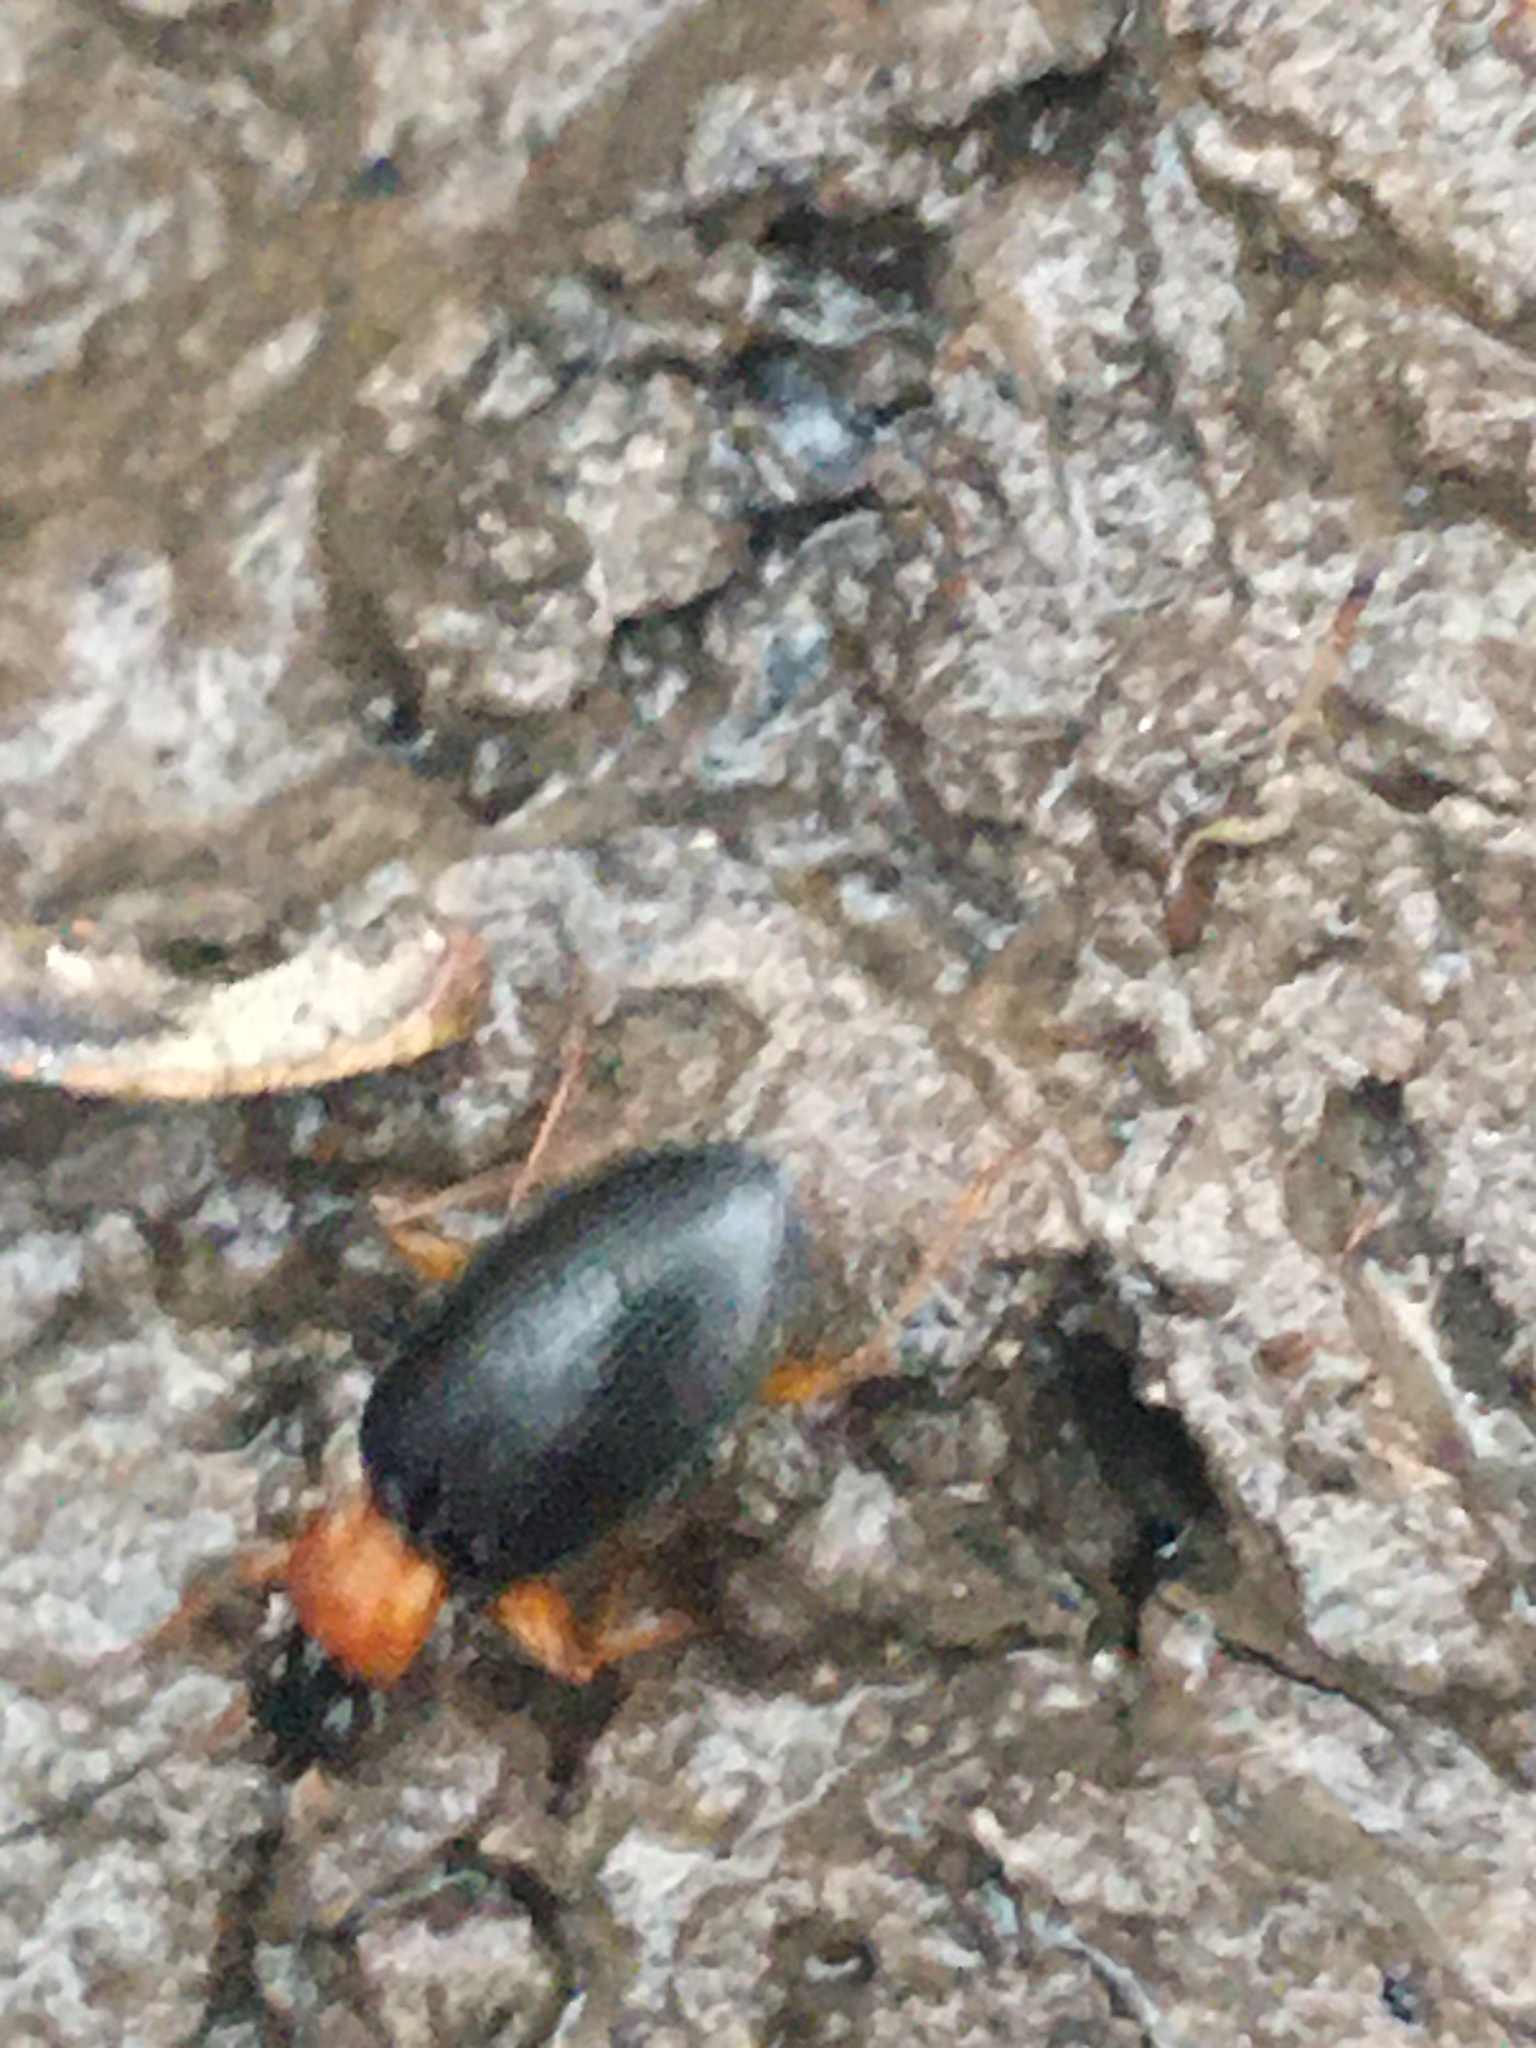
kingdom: Animalia
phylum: Arthropoda
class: Insecta
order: Coleoptera
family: Carabidae
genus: Agonum
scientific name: Agonum decorum
